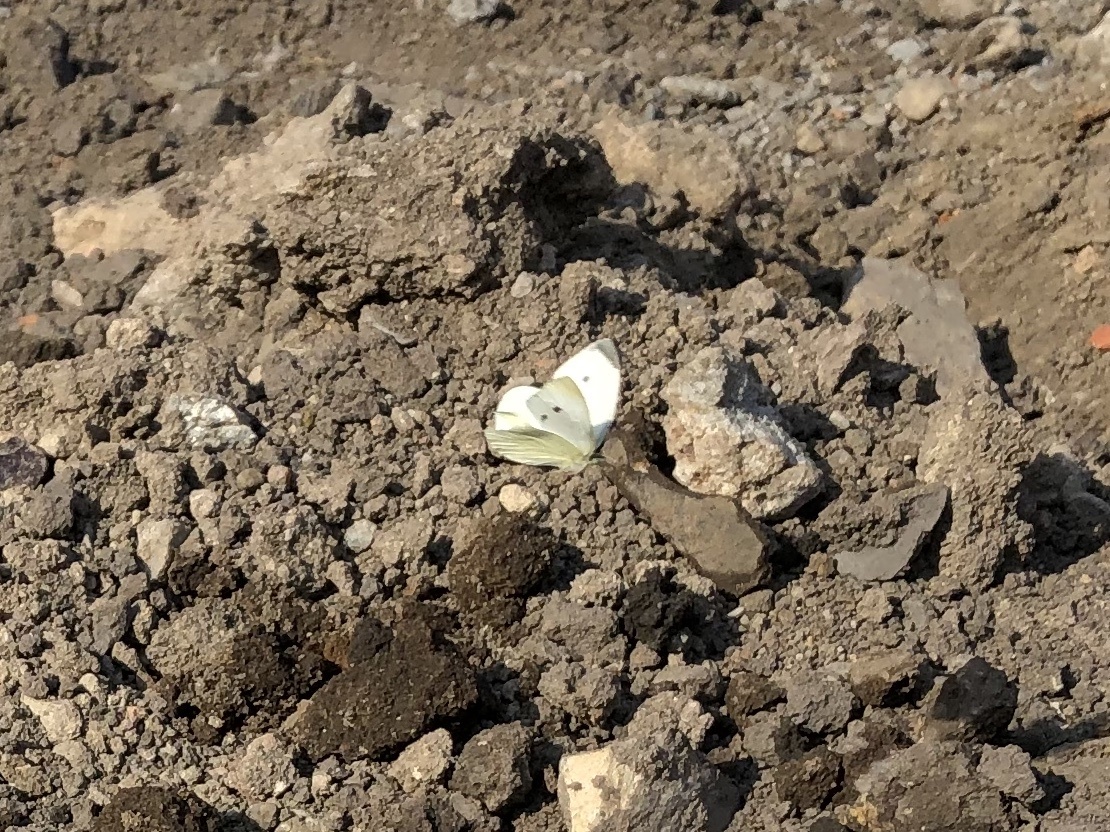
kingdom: Animalia
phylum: Arthropoda
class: Insecta
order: Lepidoptera
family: Pieridae
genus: Pieris
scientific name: Pieris rapae
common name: Small white
